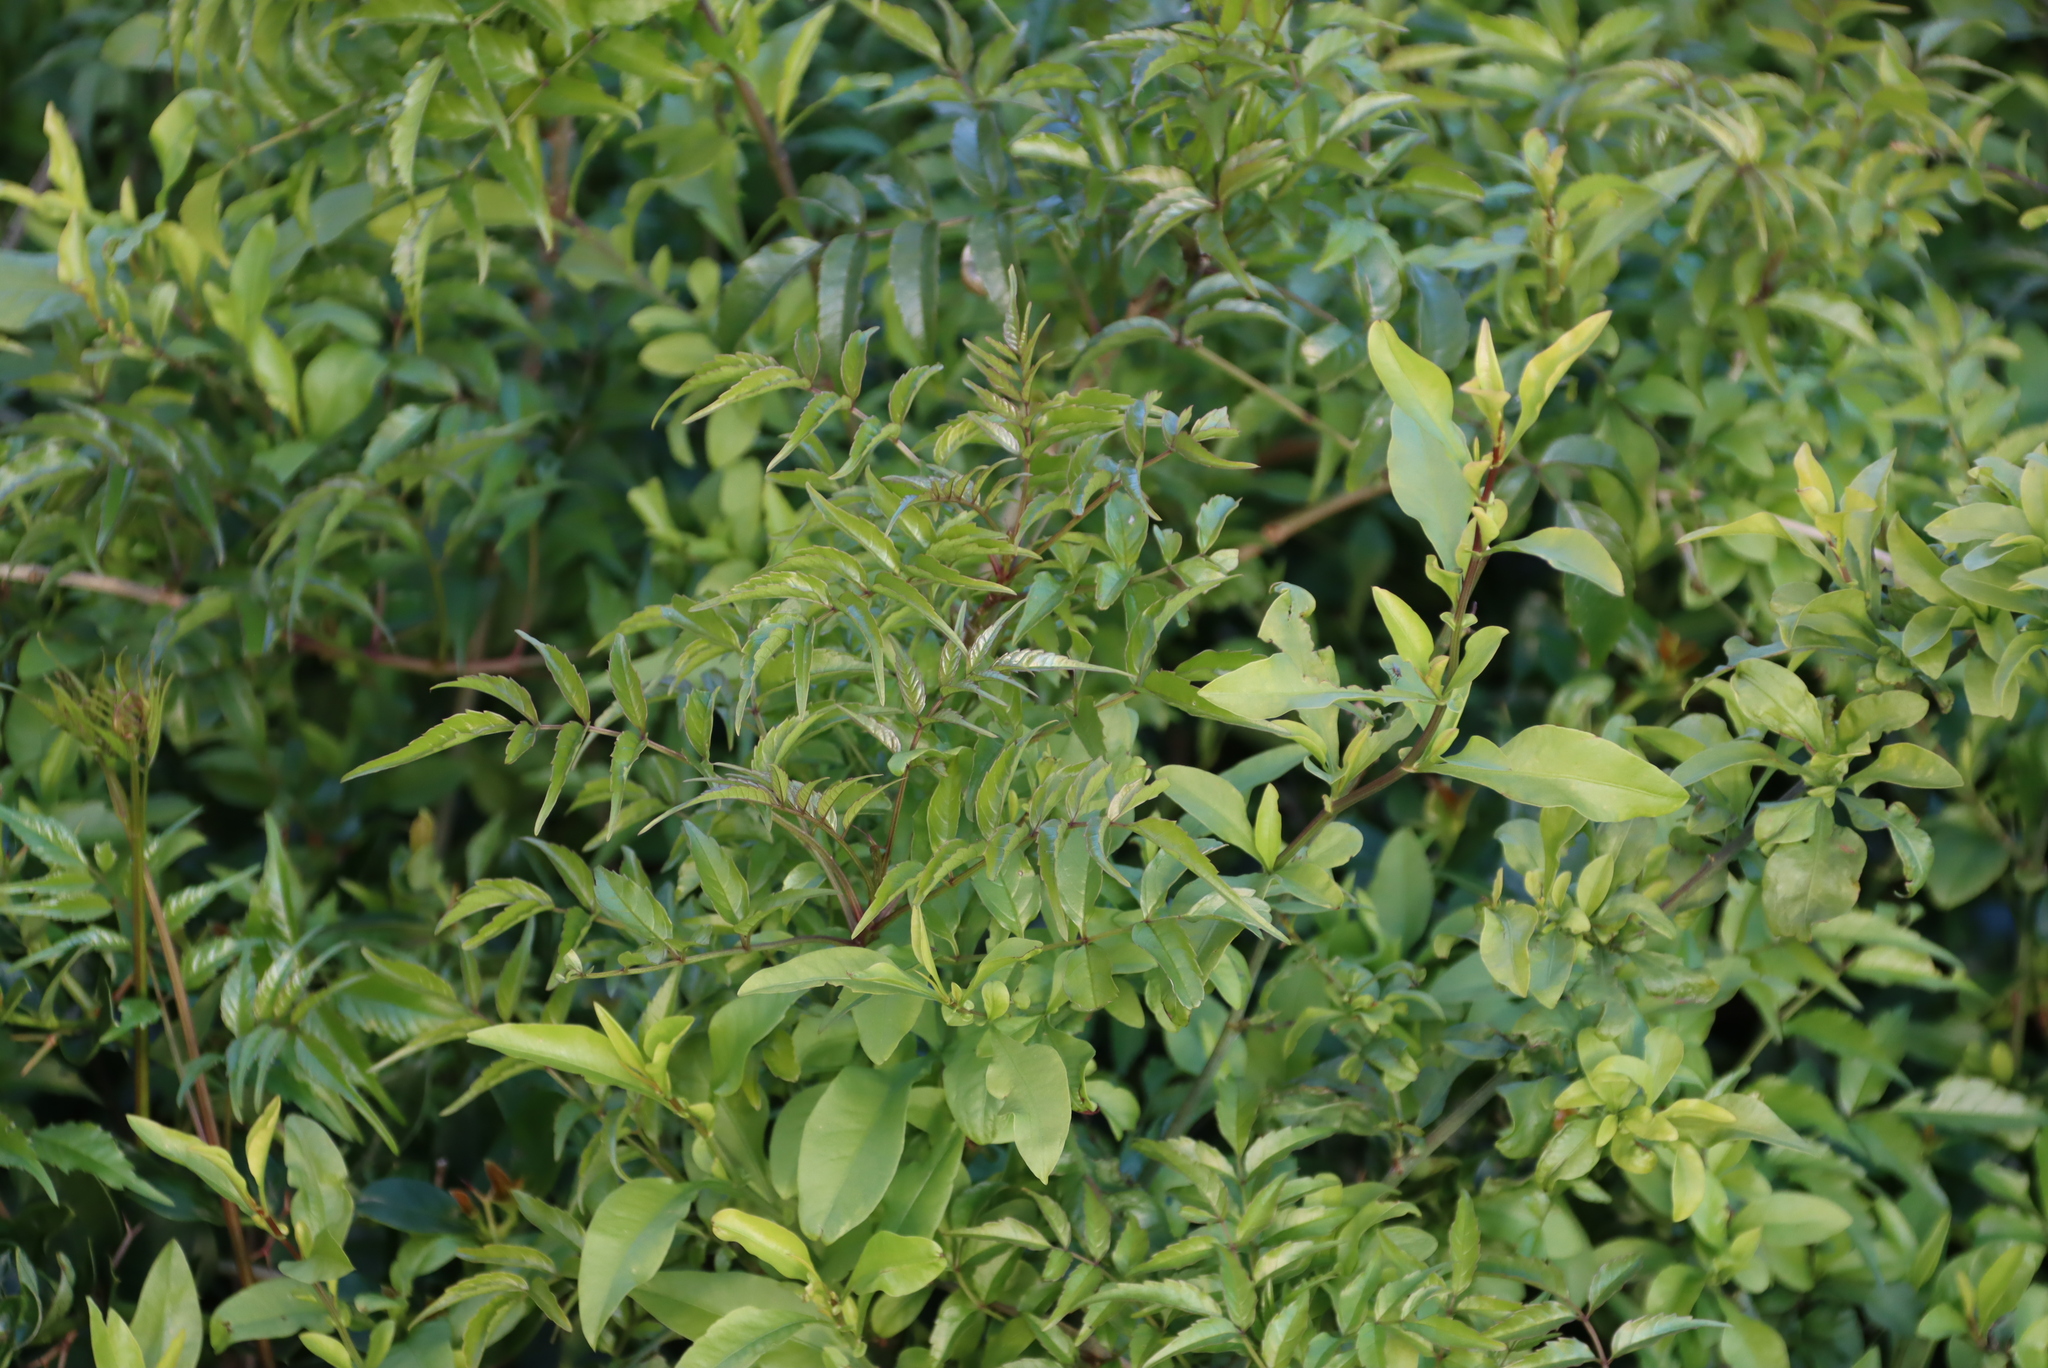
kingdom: Plantae
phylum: Tracheophyta
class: Magnoliopsida
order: Lamiales
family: Bignoniaceae
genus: Tecomaria
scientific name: Tecomaria capensis
